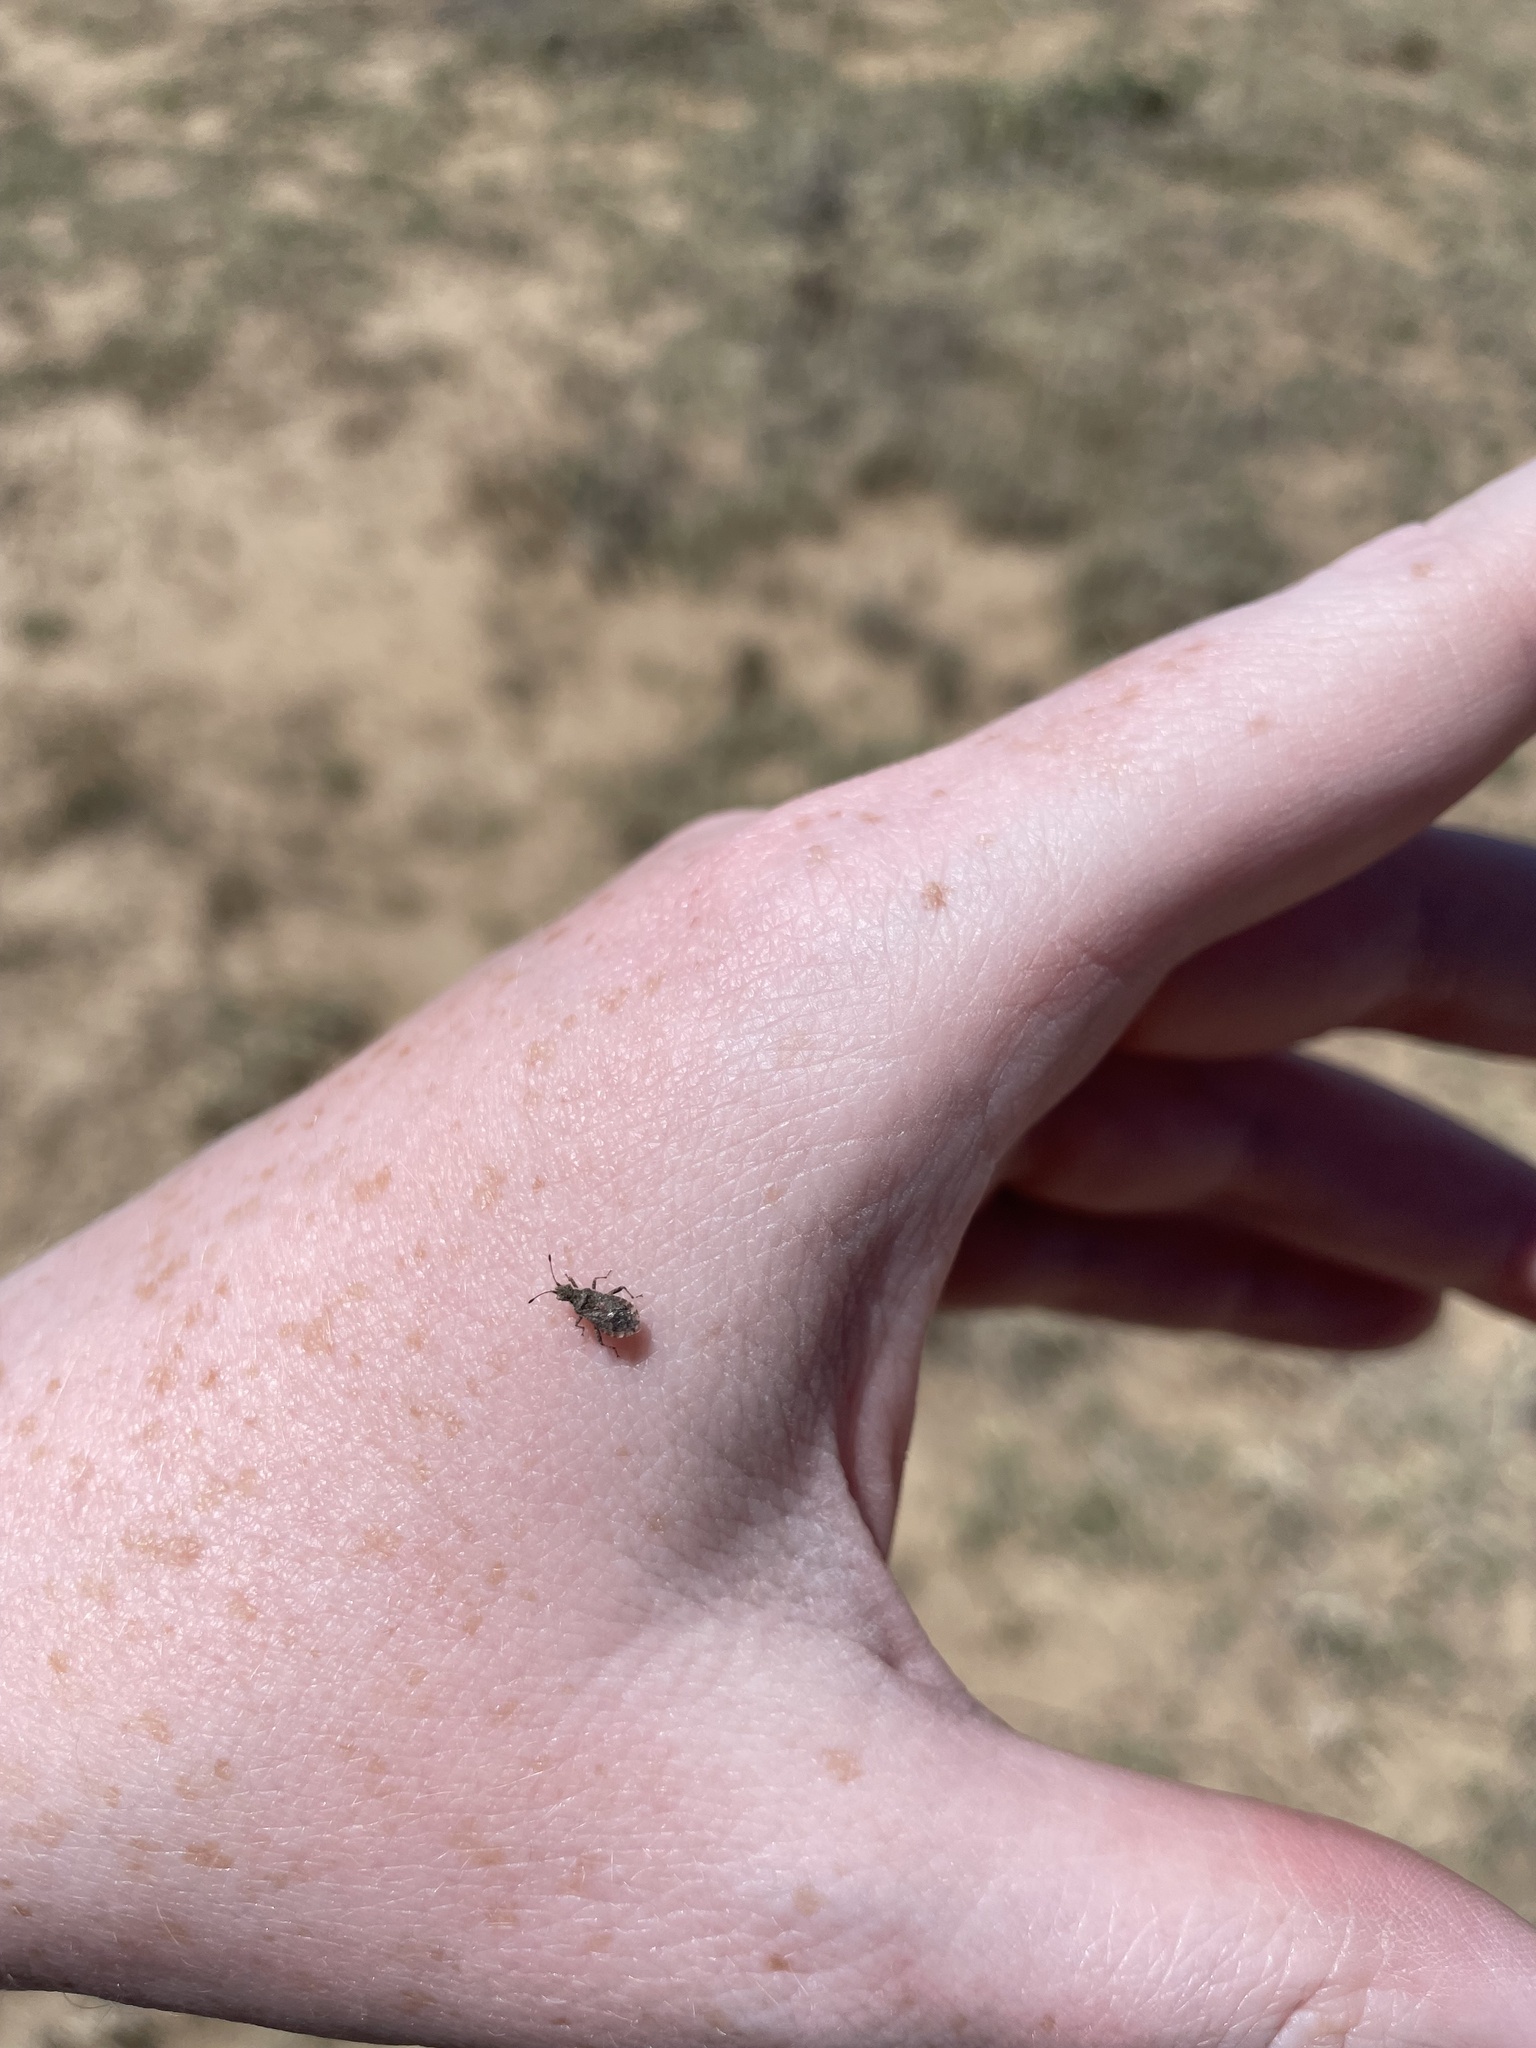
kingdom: Animalia
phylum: Arthropoda
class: Insecta
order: Hemiptera
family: Rhopalidae
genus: Aufeius
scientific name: Aufeius impressicollis
